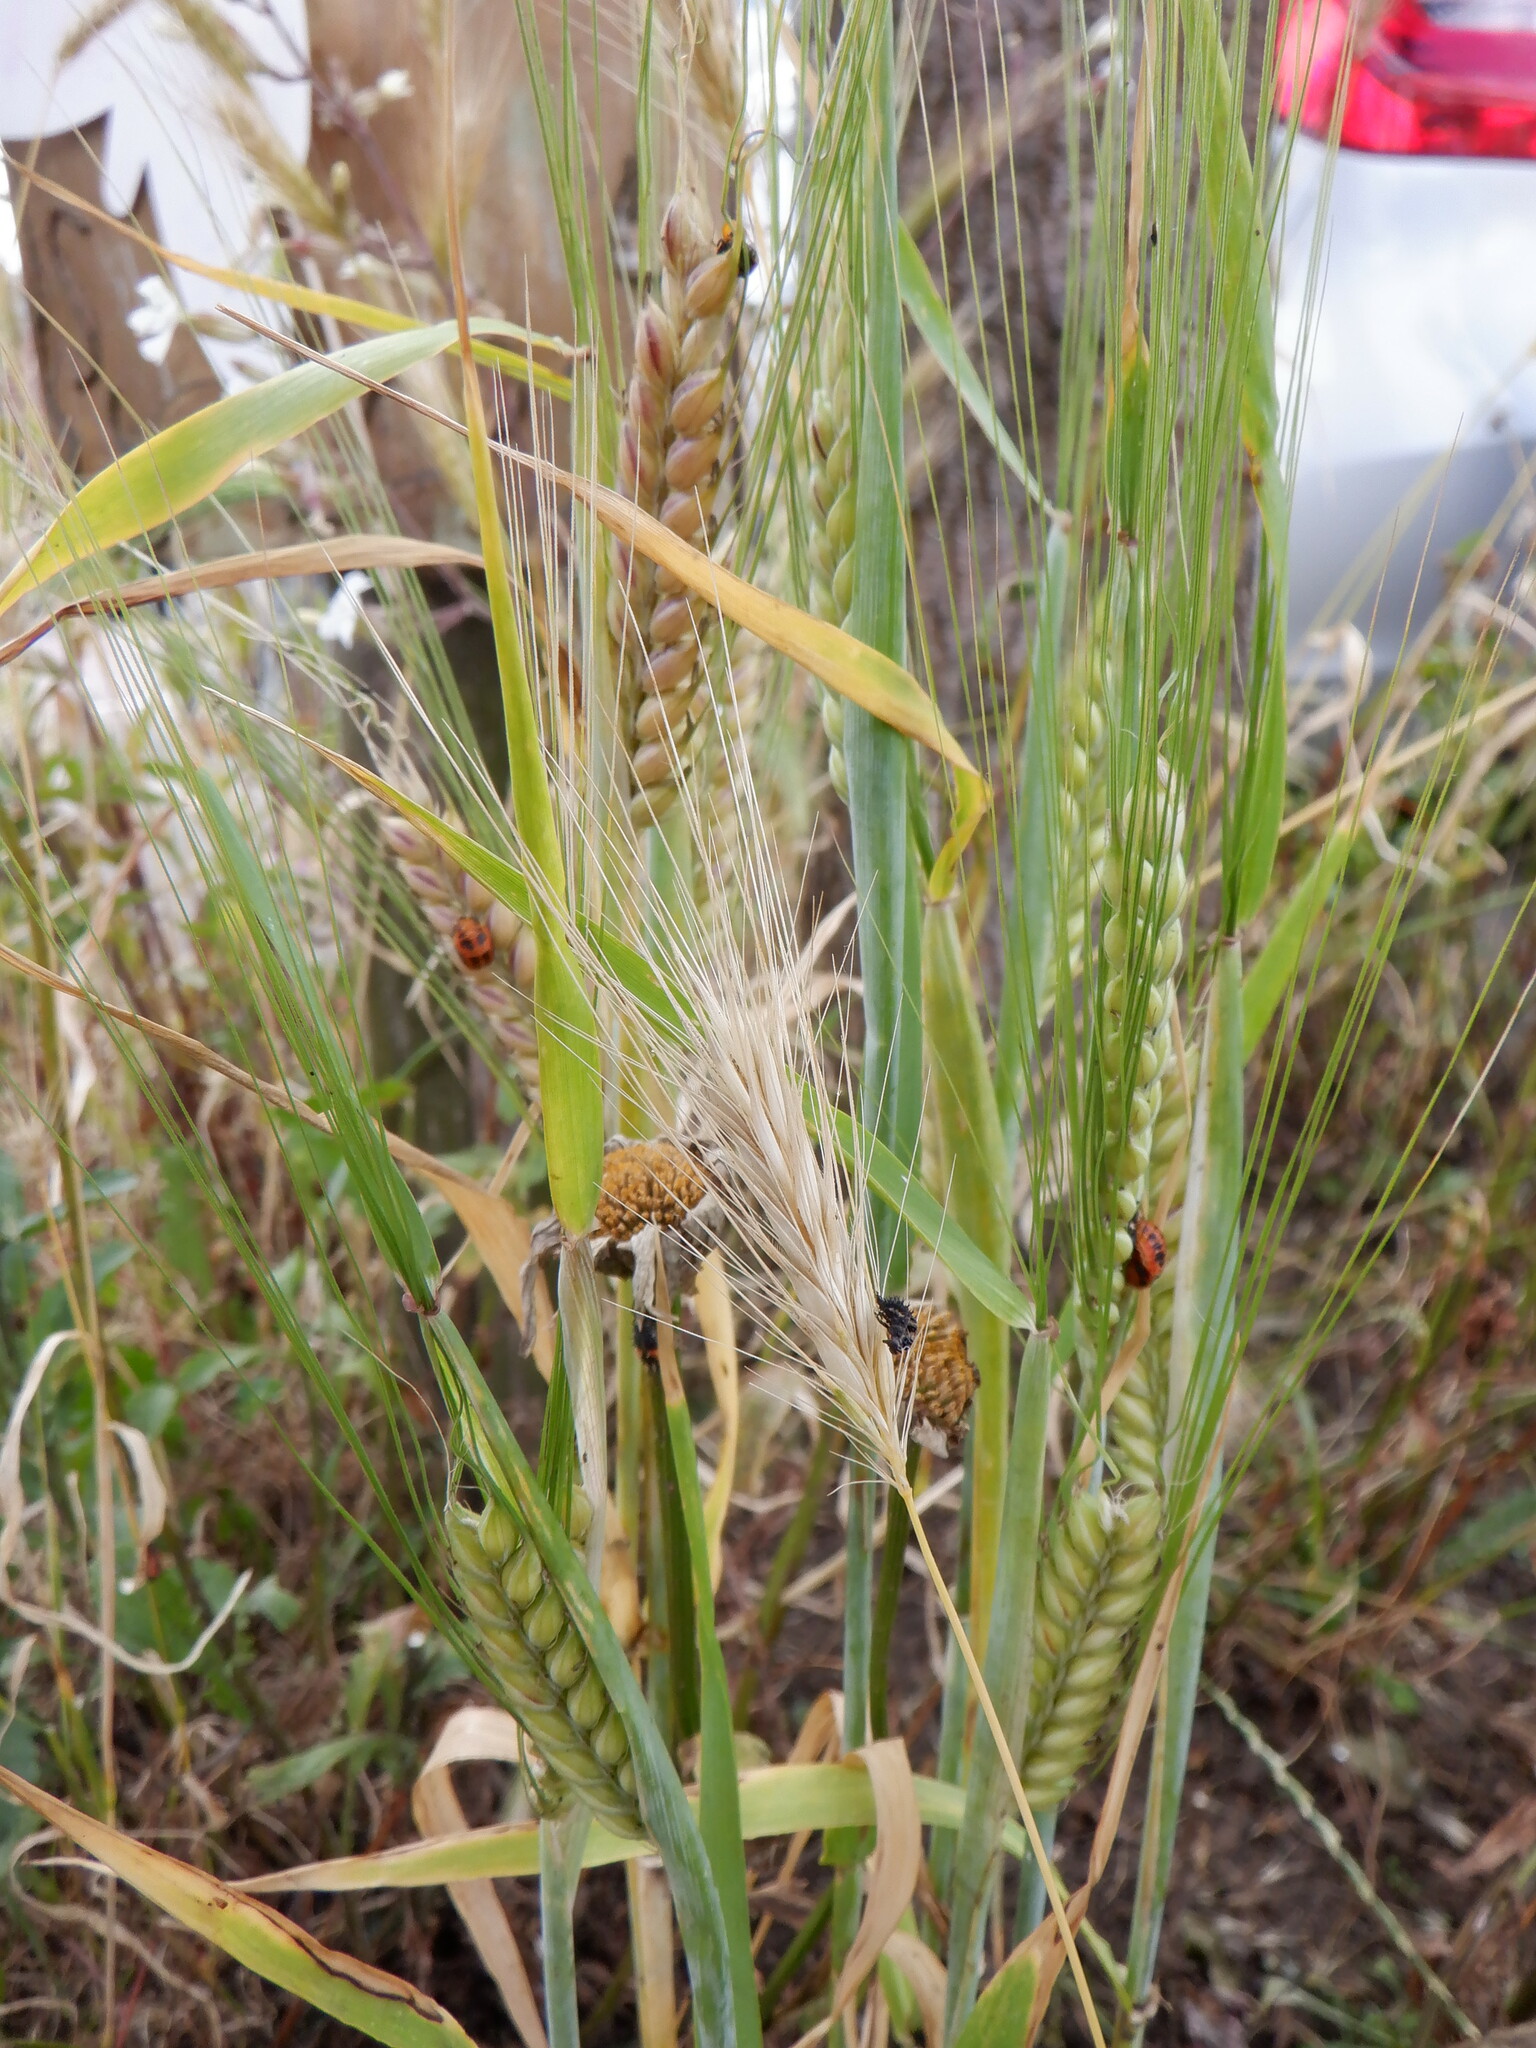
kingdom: Plantae
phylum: Tracheophyta
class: Liliopsida
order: Poales
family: Poaceae
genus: Hordeum
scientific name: Hordeum vulgare
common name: Common barley
